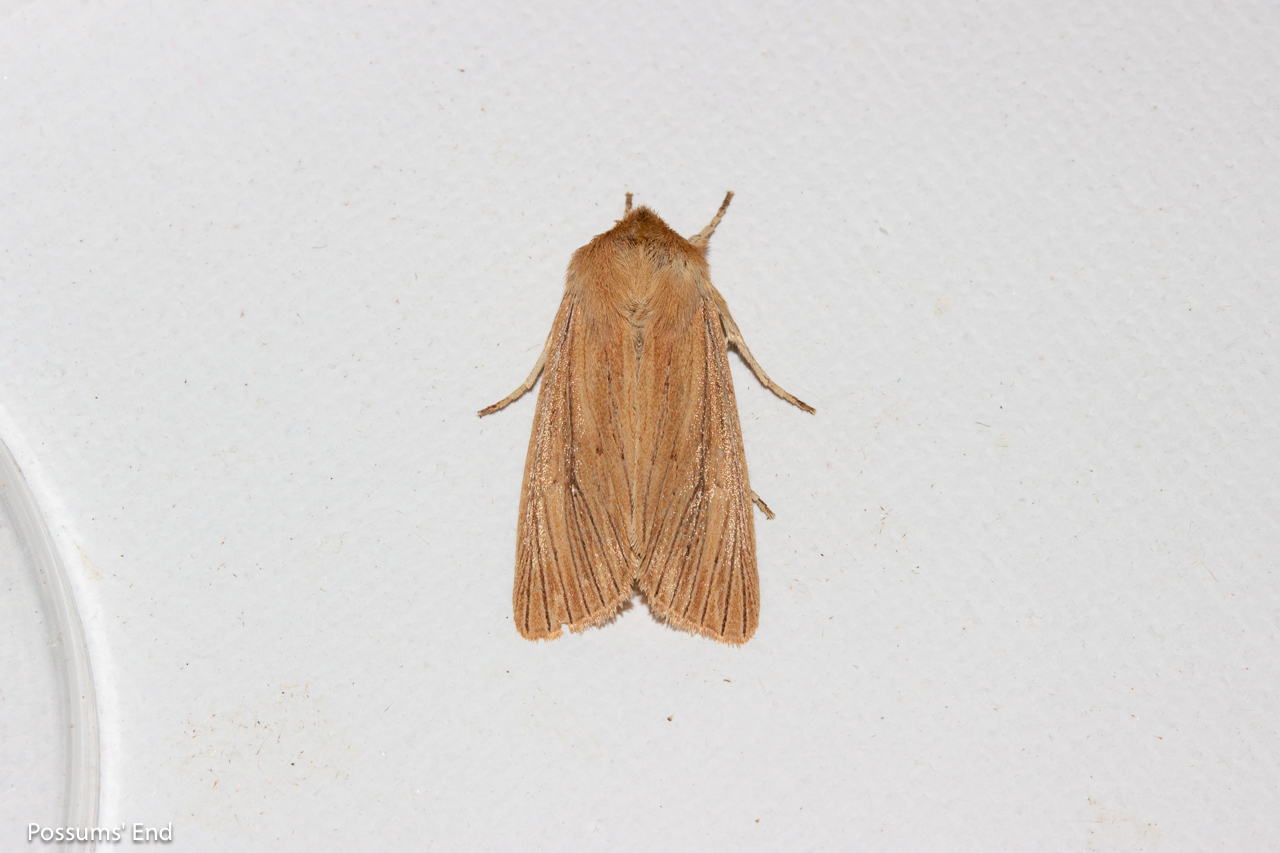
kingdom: Animalia
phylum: Arthropoda
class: Insecta
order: Lepidoptera
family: Noctuidae
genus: Ichneutica
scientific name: Ichneutica arotis
